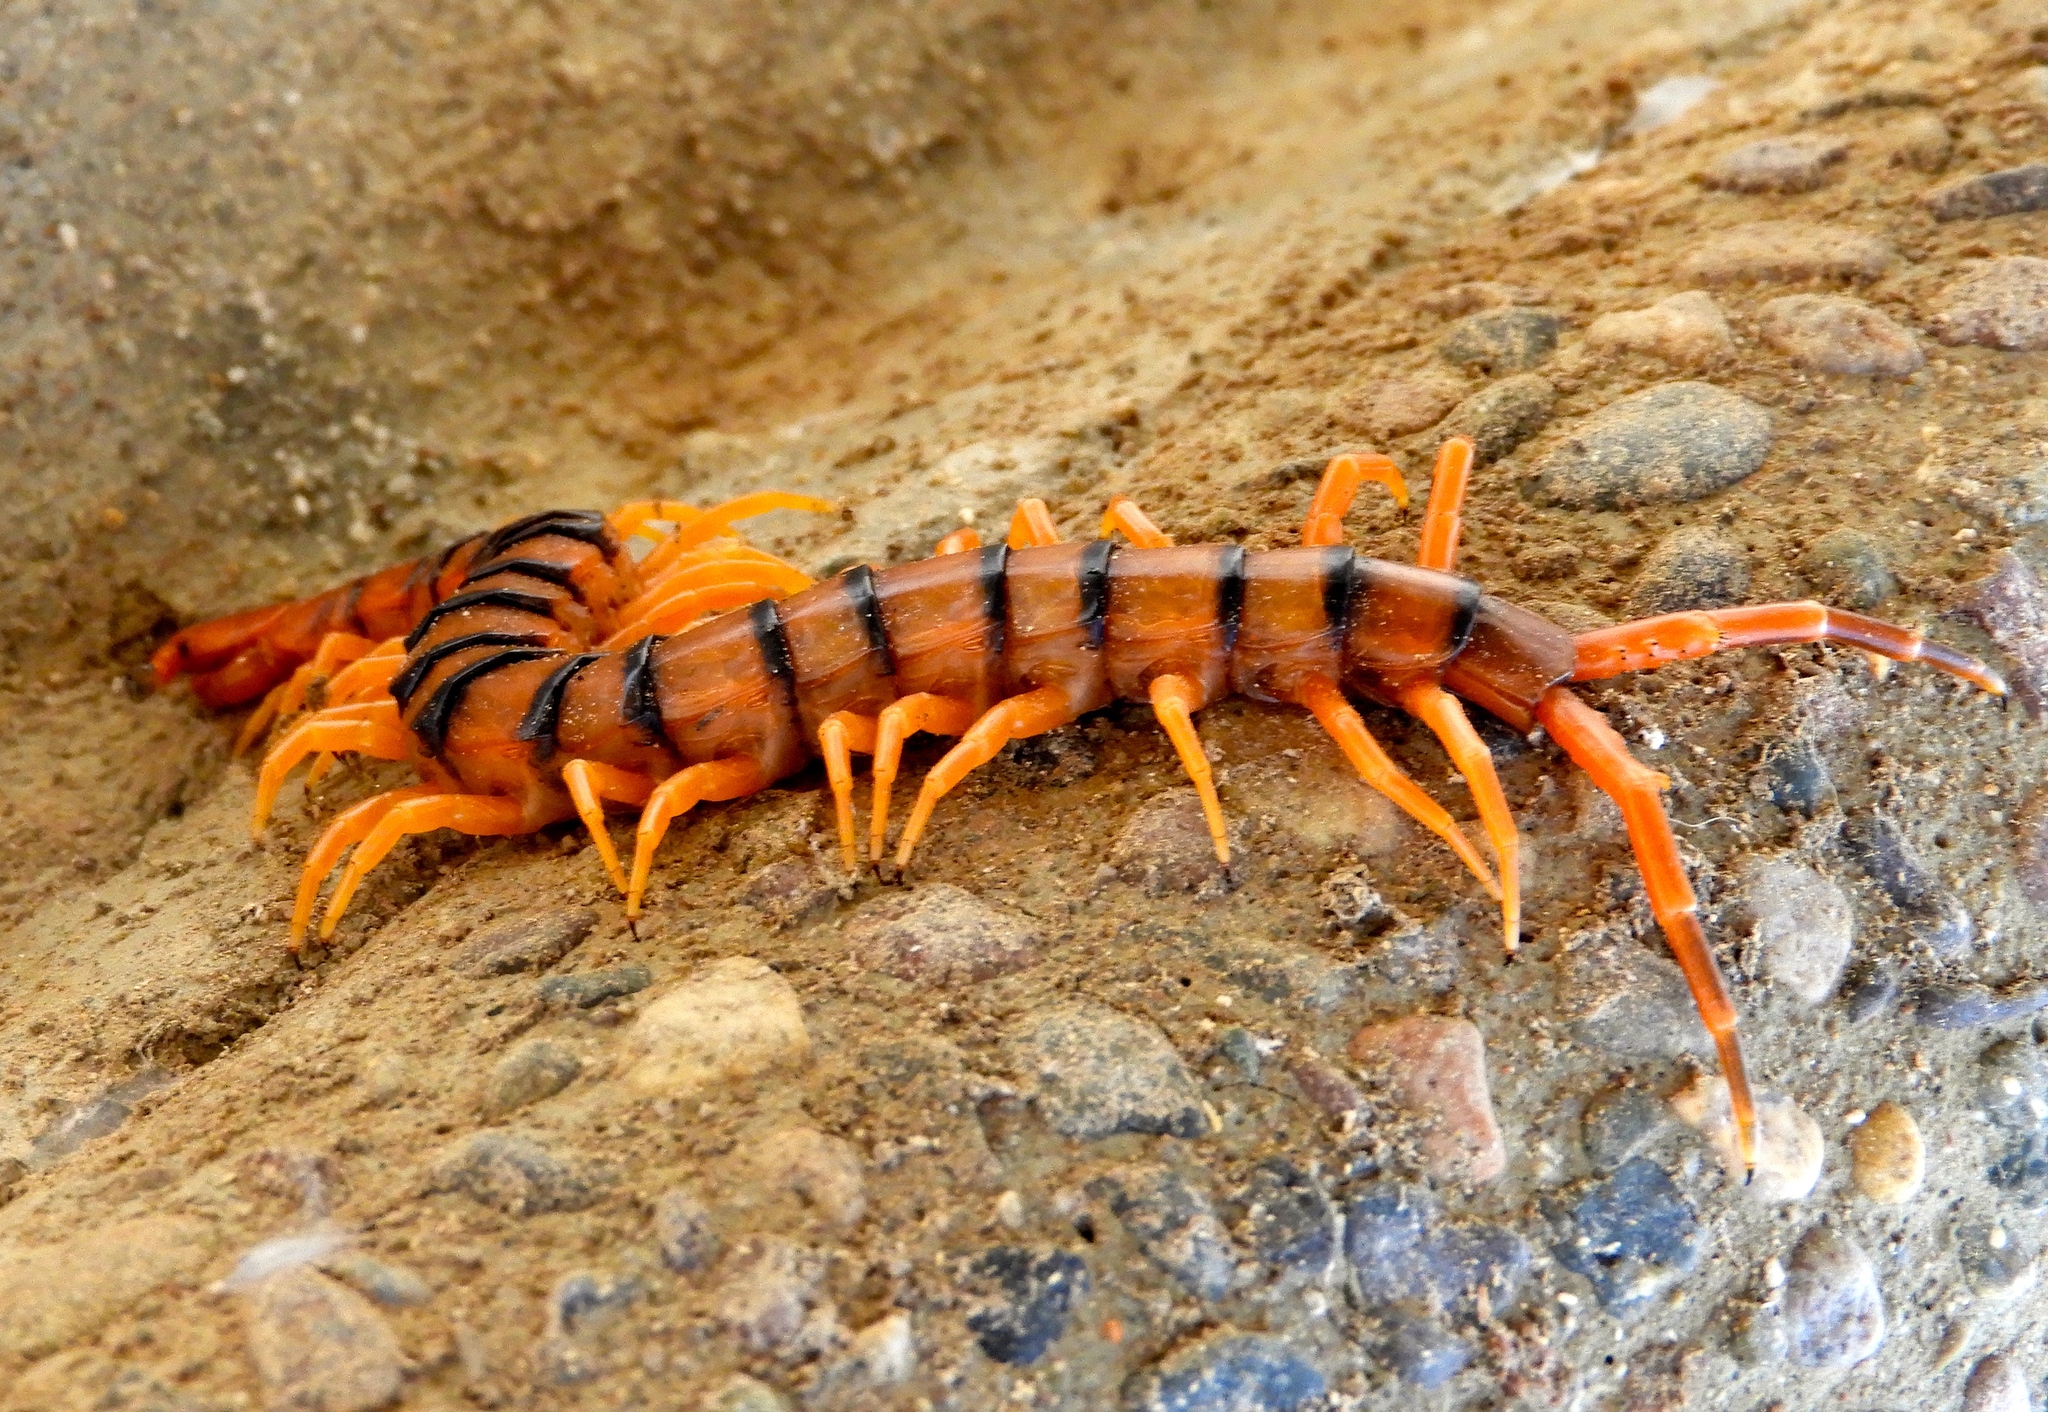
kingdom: Animalia
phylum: Arthropoda
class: Chilopoda
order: Scolopendromorpha
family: Scolopendridae
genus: Scolopendra
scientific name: Scolopendra heros
